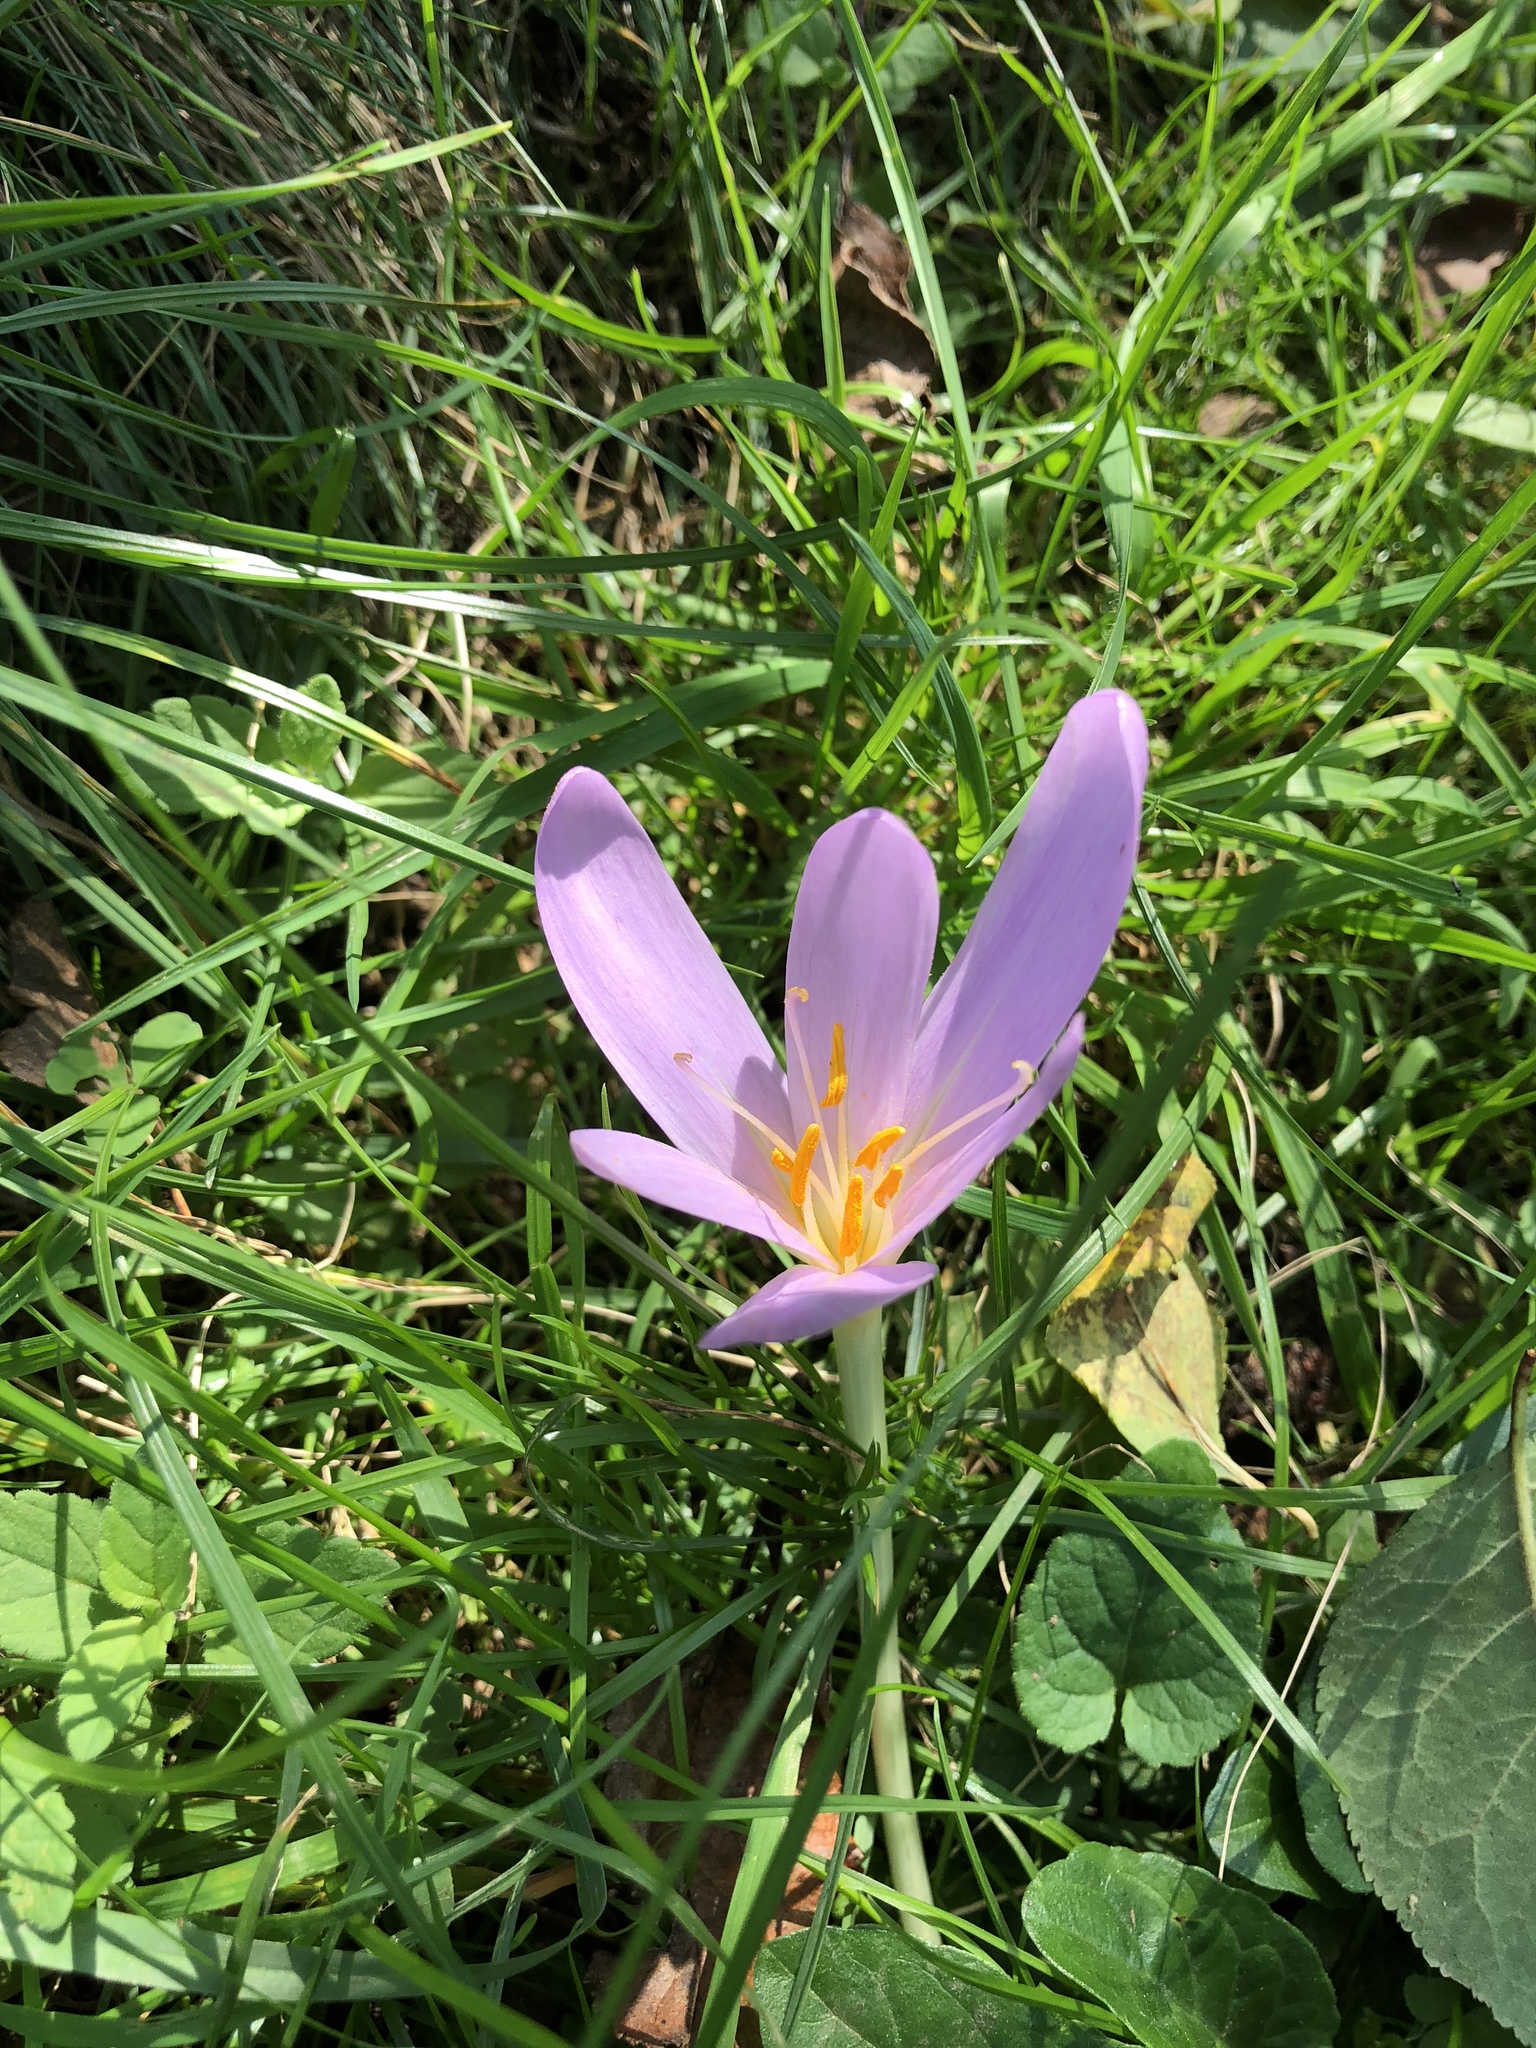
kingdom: Plantae
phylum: Tracheophyta
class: Liliopsida
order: Liliales
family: Colchicaceae
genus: Colchicum
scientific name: Colchicum autumnale
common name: Autumn crocus
